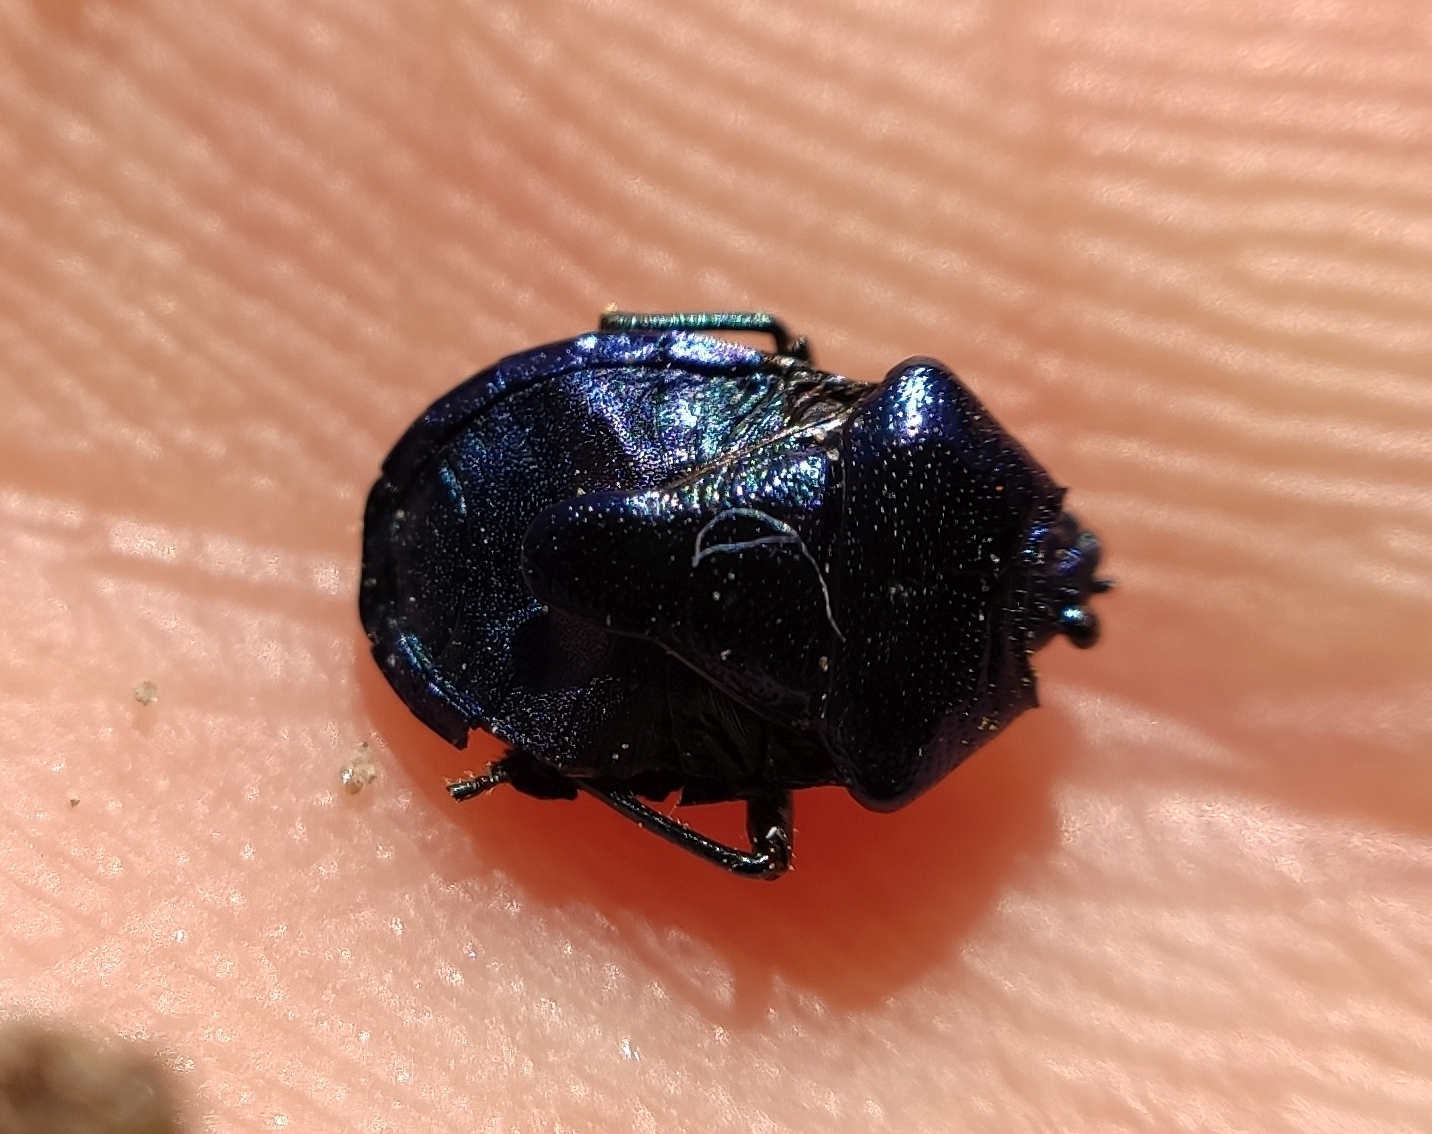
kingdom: Animalia
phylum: Arthropoda
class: Insecta
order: Hemiptera
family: Pentatomidae
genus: Zicrona
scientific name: Zicrona caerulea
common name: Blue shieldbug
